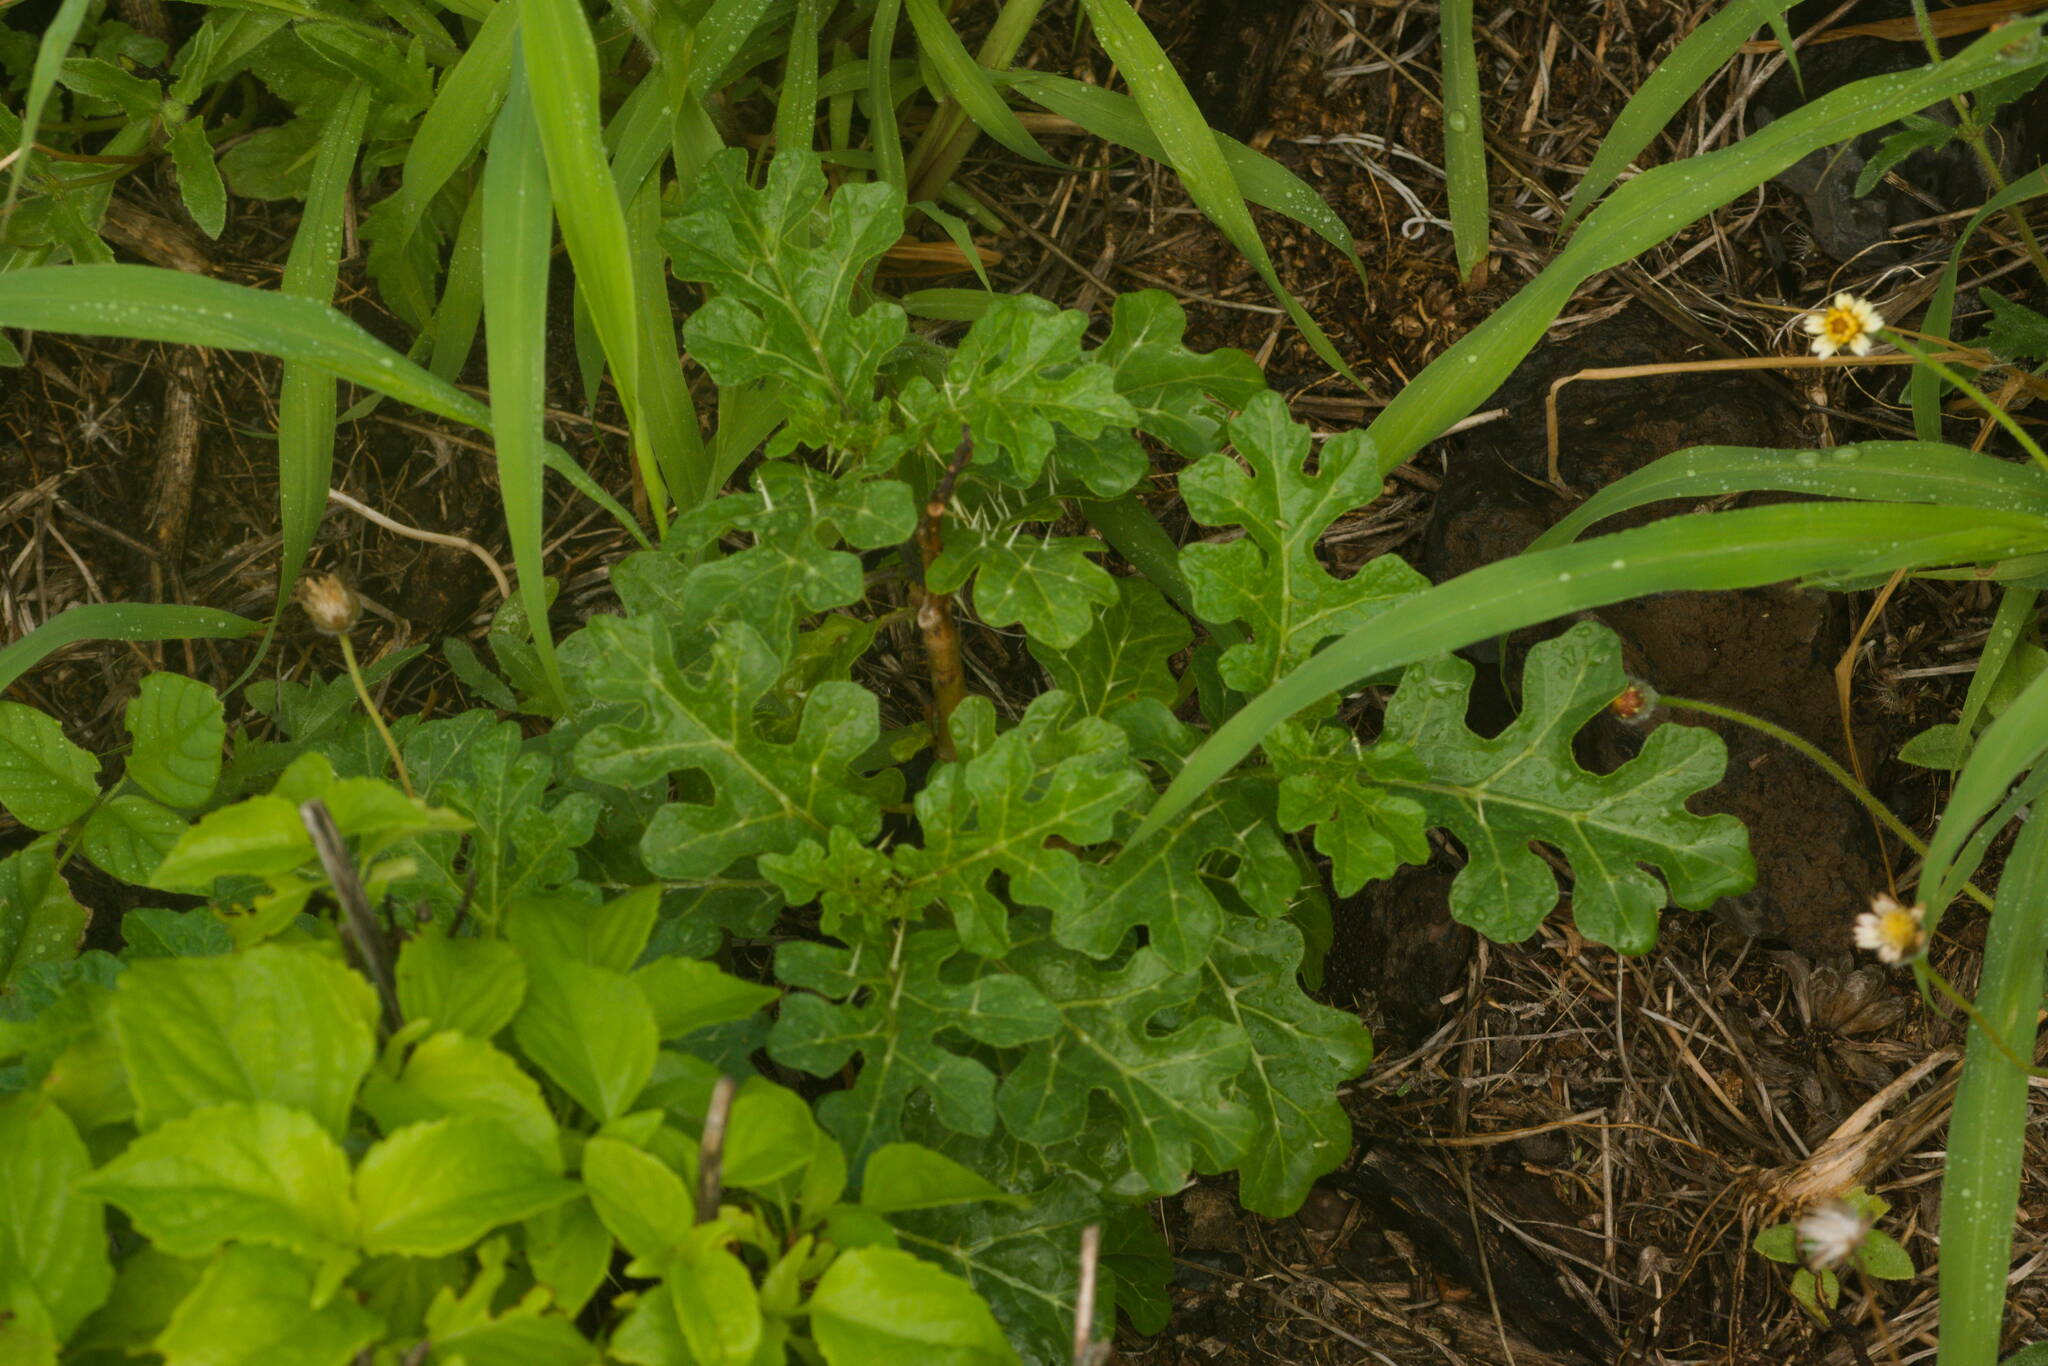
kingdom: Plantae
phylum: Tracheophyta
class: Magnoliopsida
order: Solanales
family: Solanaceae
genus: Solanum
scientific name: Solanum linnaeanum
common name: Nightshade
